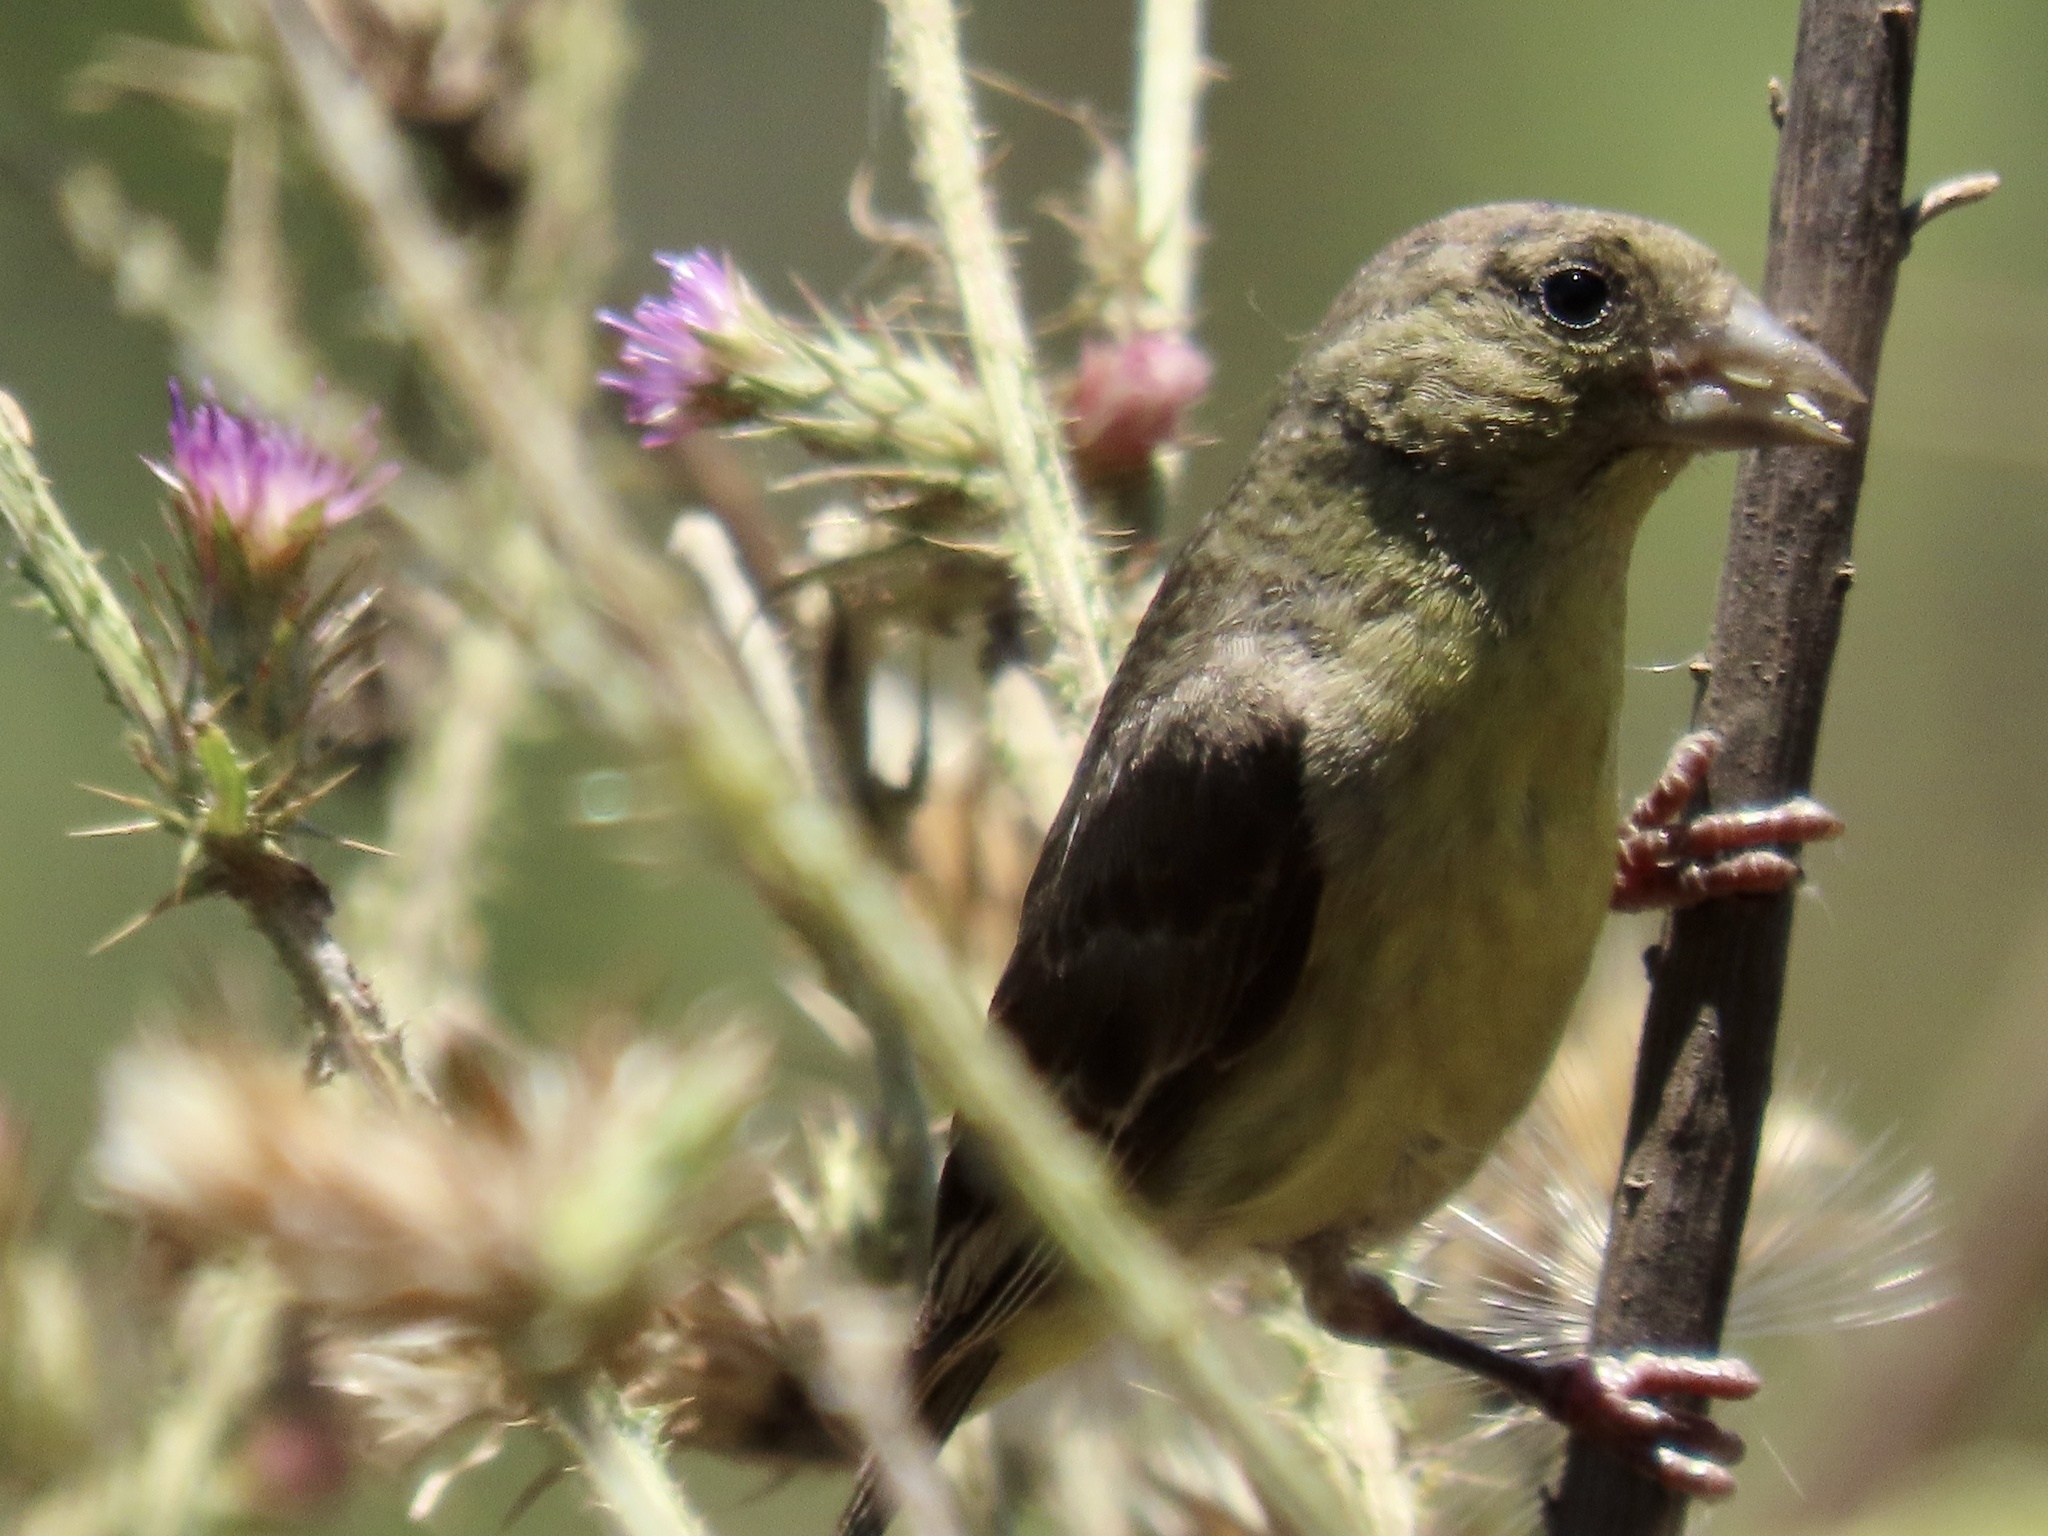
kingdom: Animalia
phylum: Chordata
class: Aves
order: Passeriformes
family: Fringillidae
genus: Spinus
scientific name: Spinus psaltria
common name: Lesser goldfinch
